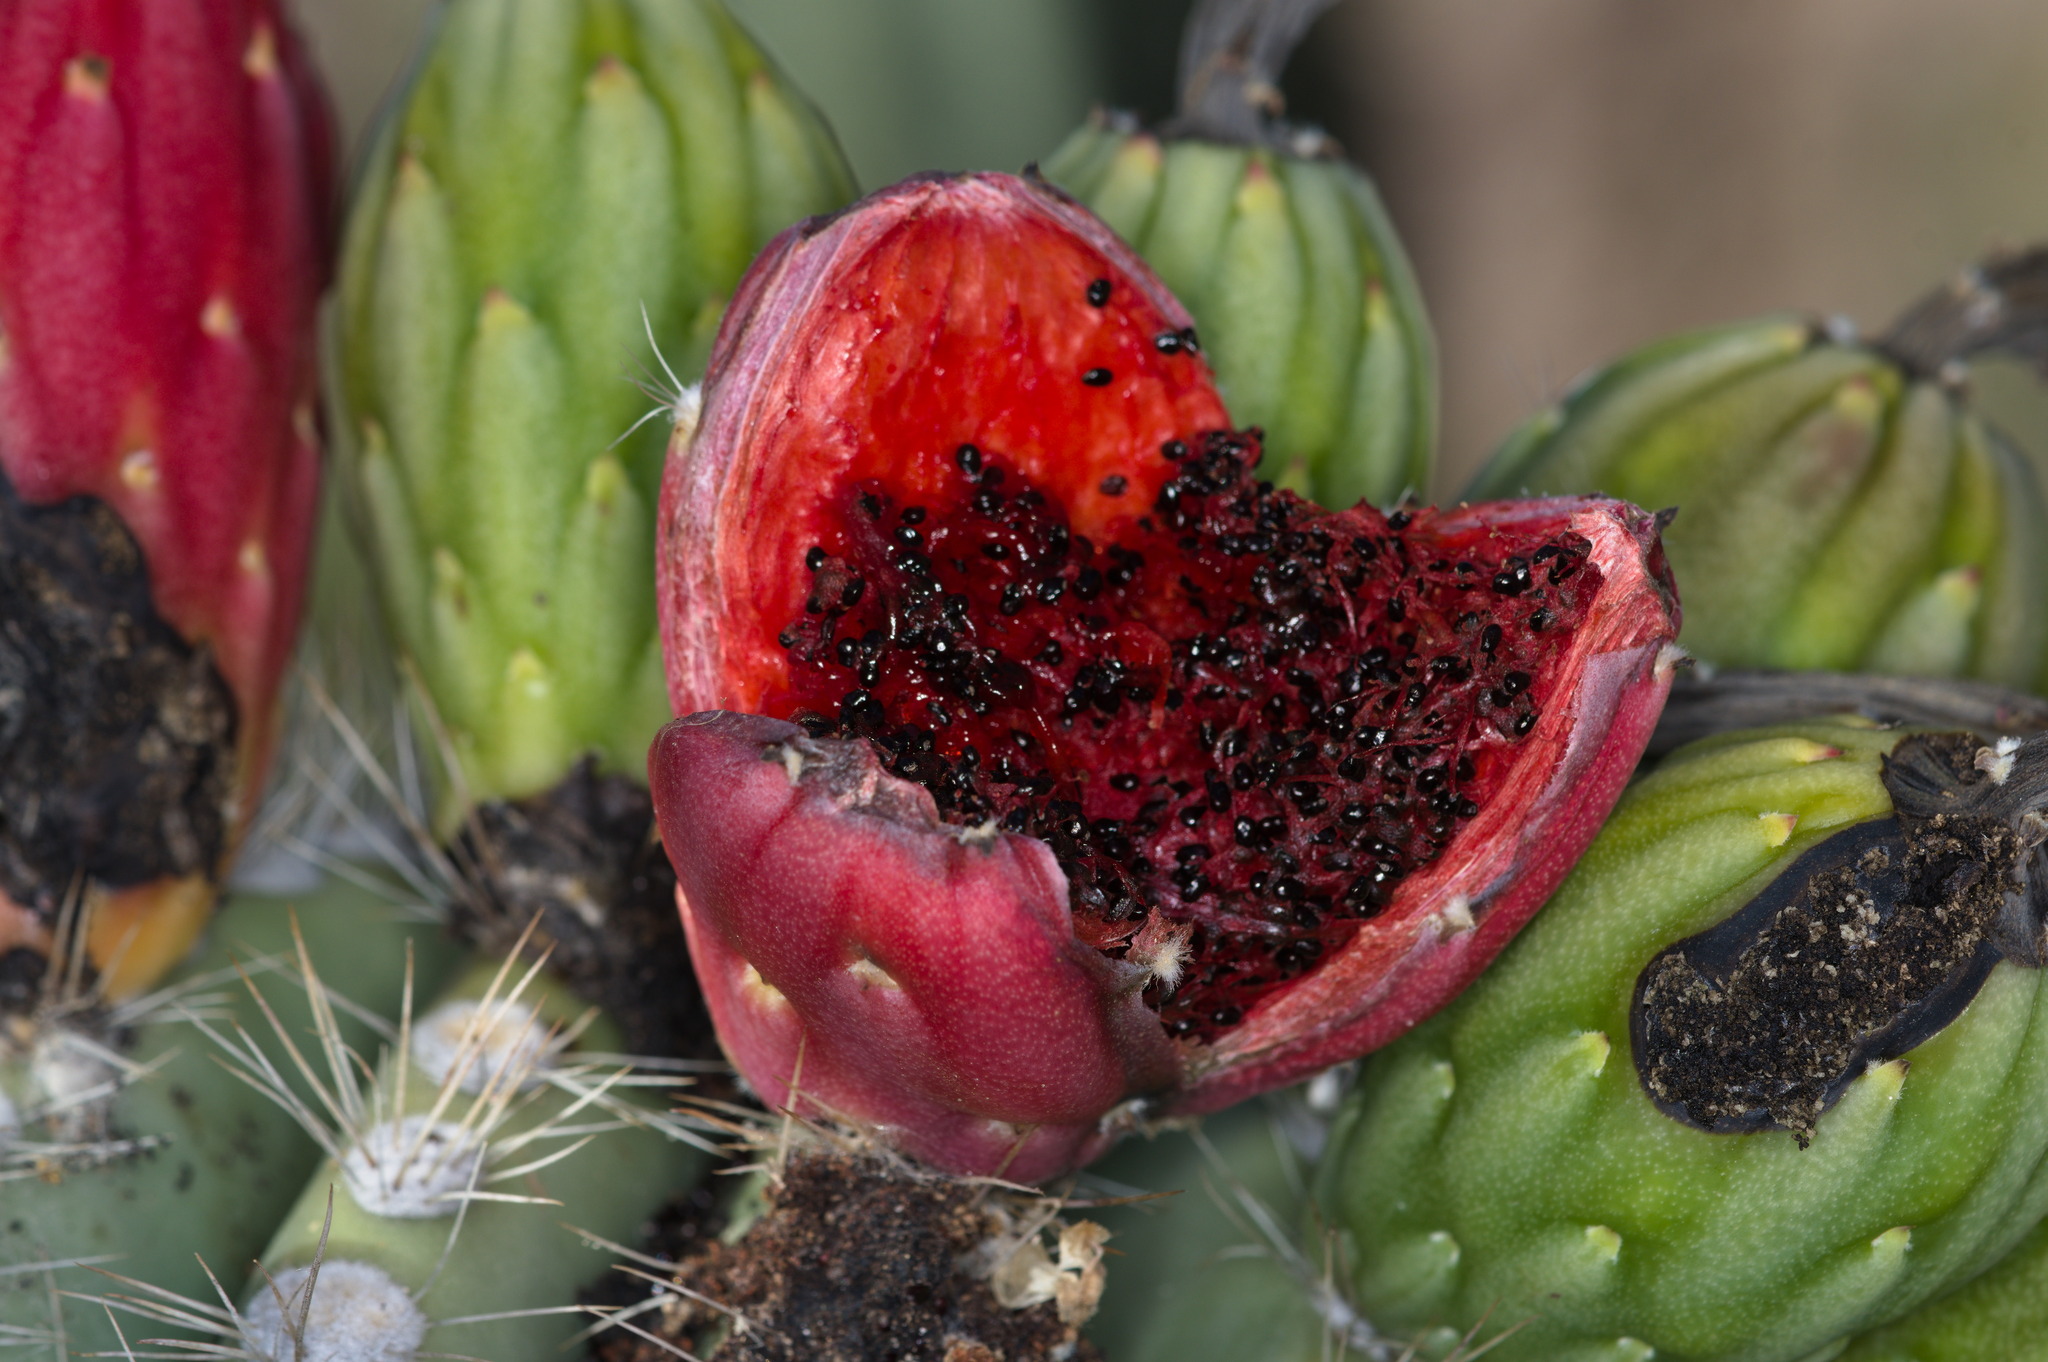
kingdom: Plantae
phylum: Tracheophyta
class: Magnoliopsida
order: Caryophyllales
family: Cactaceae
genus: Carnegiea
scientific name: Carnegiea gigantea
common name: Saguaro
